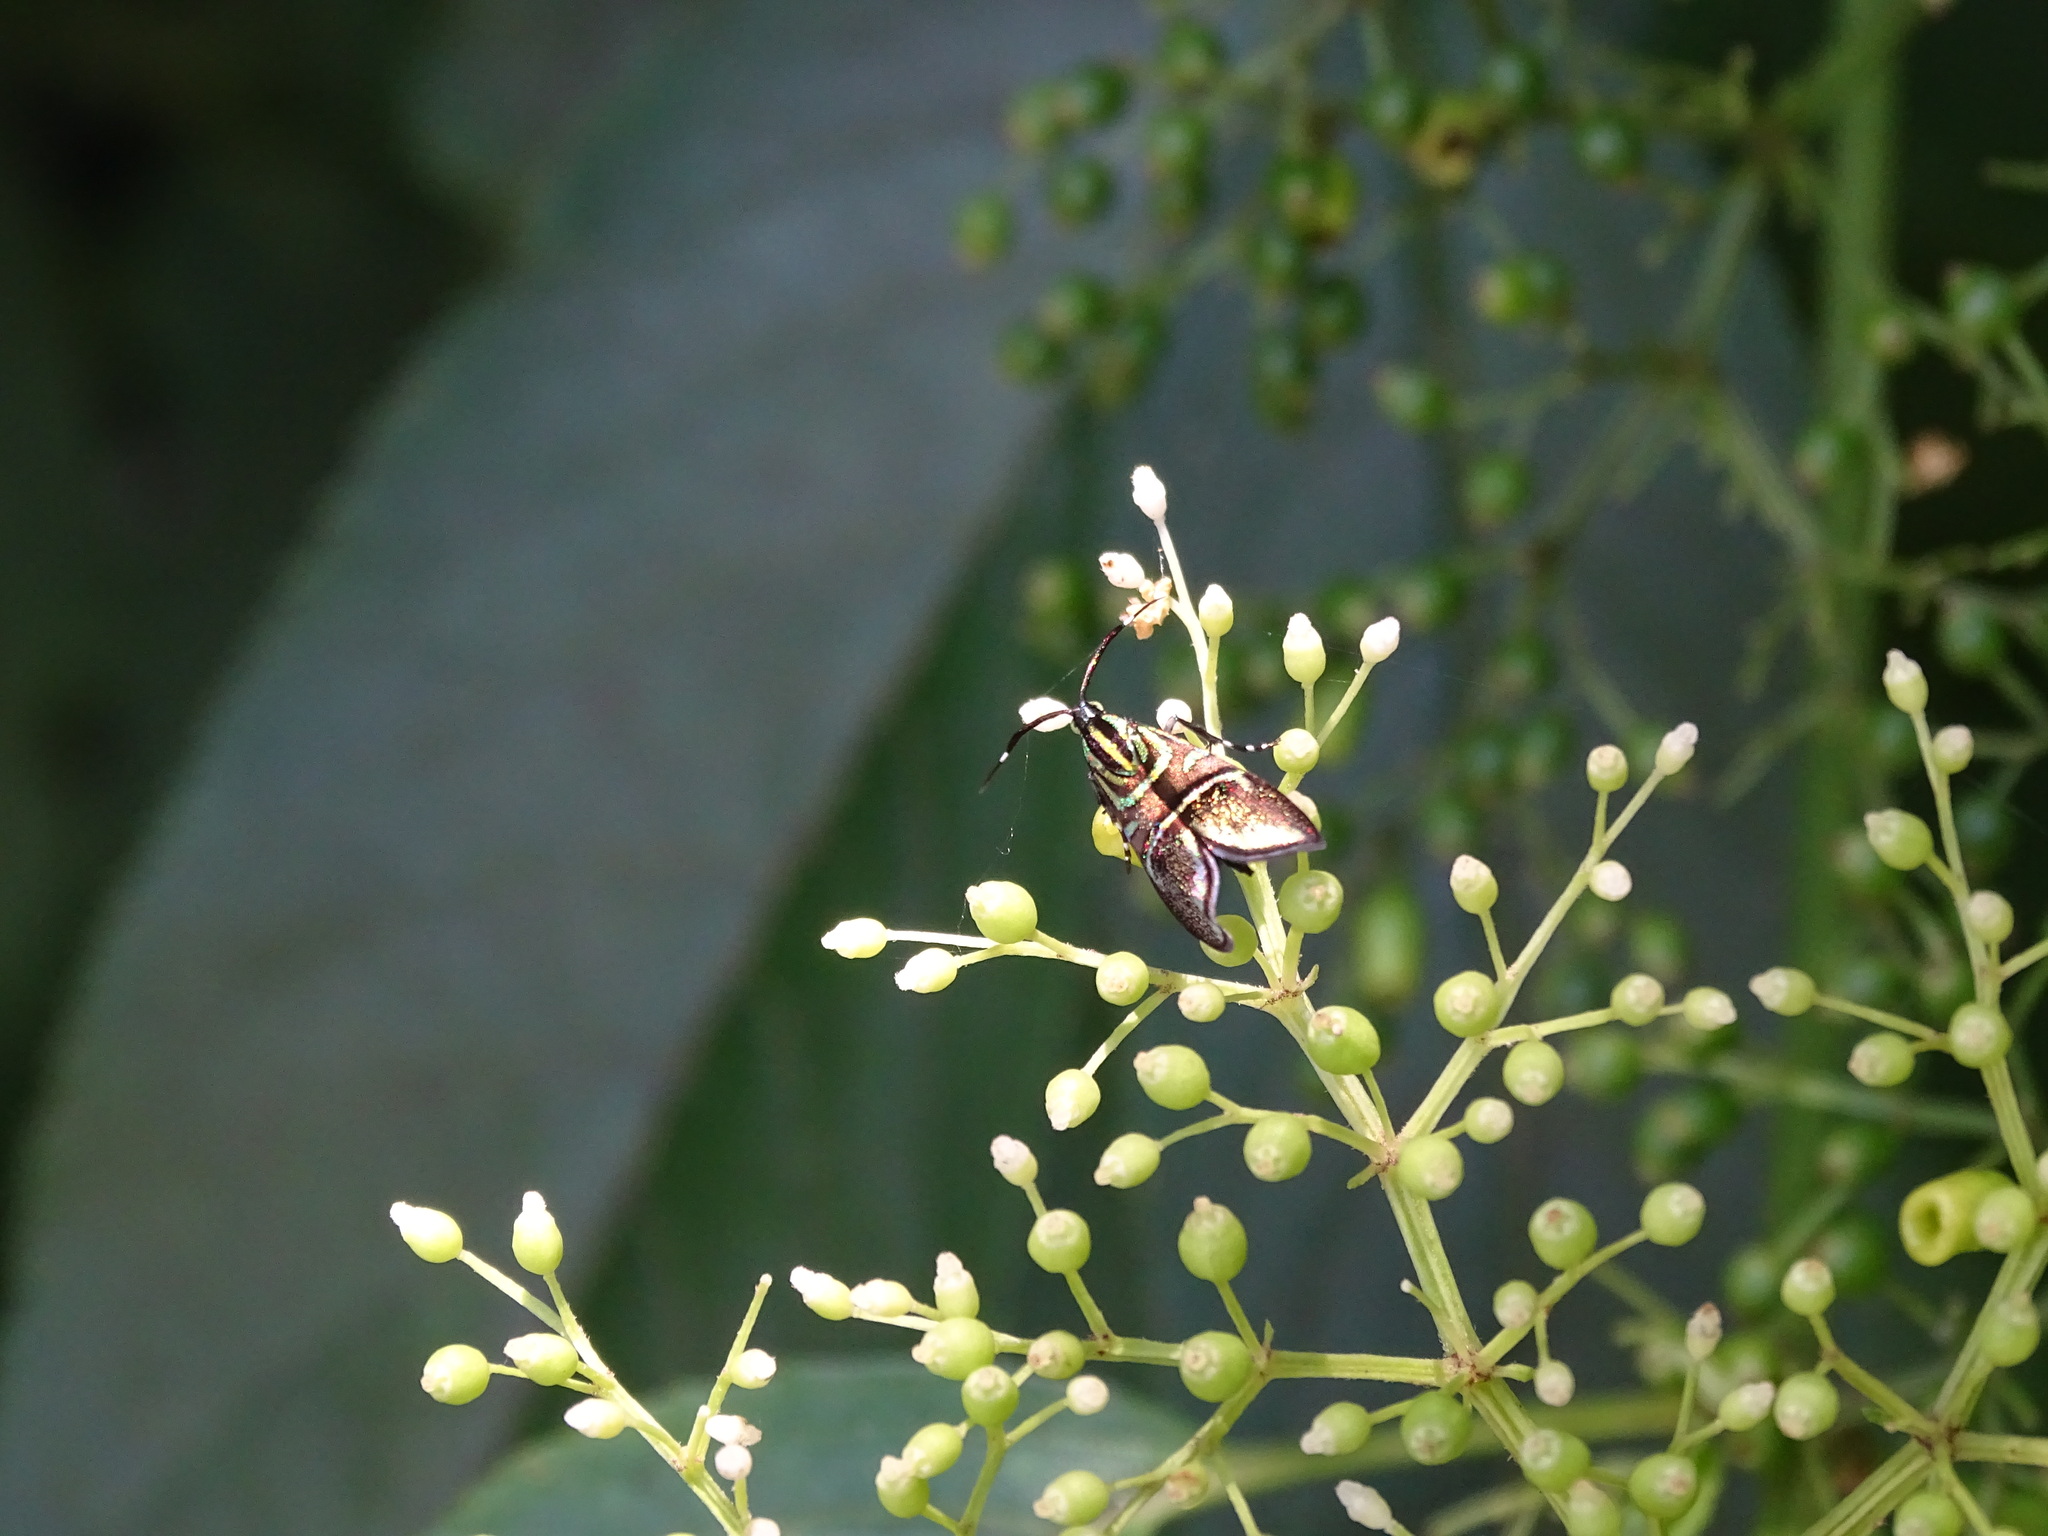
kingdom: Animalia
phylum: Arthropoda
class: Insecta
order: Lepidoptera
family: Choreutidae
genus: Saptha
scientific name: Saptha divitiosa
